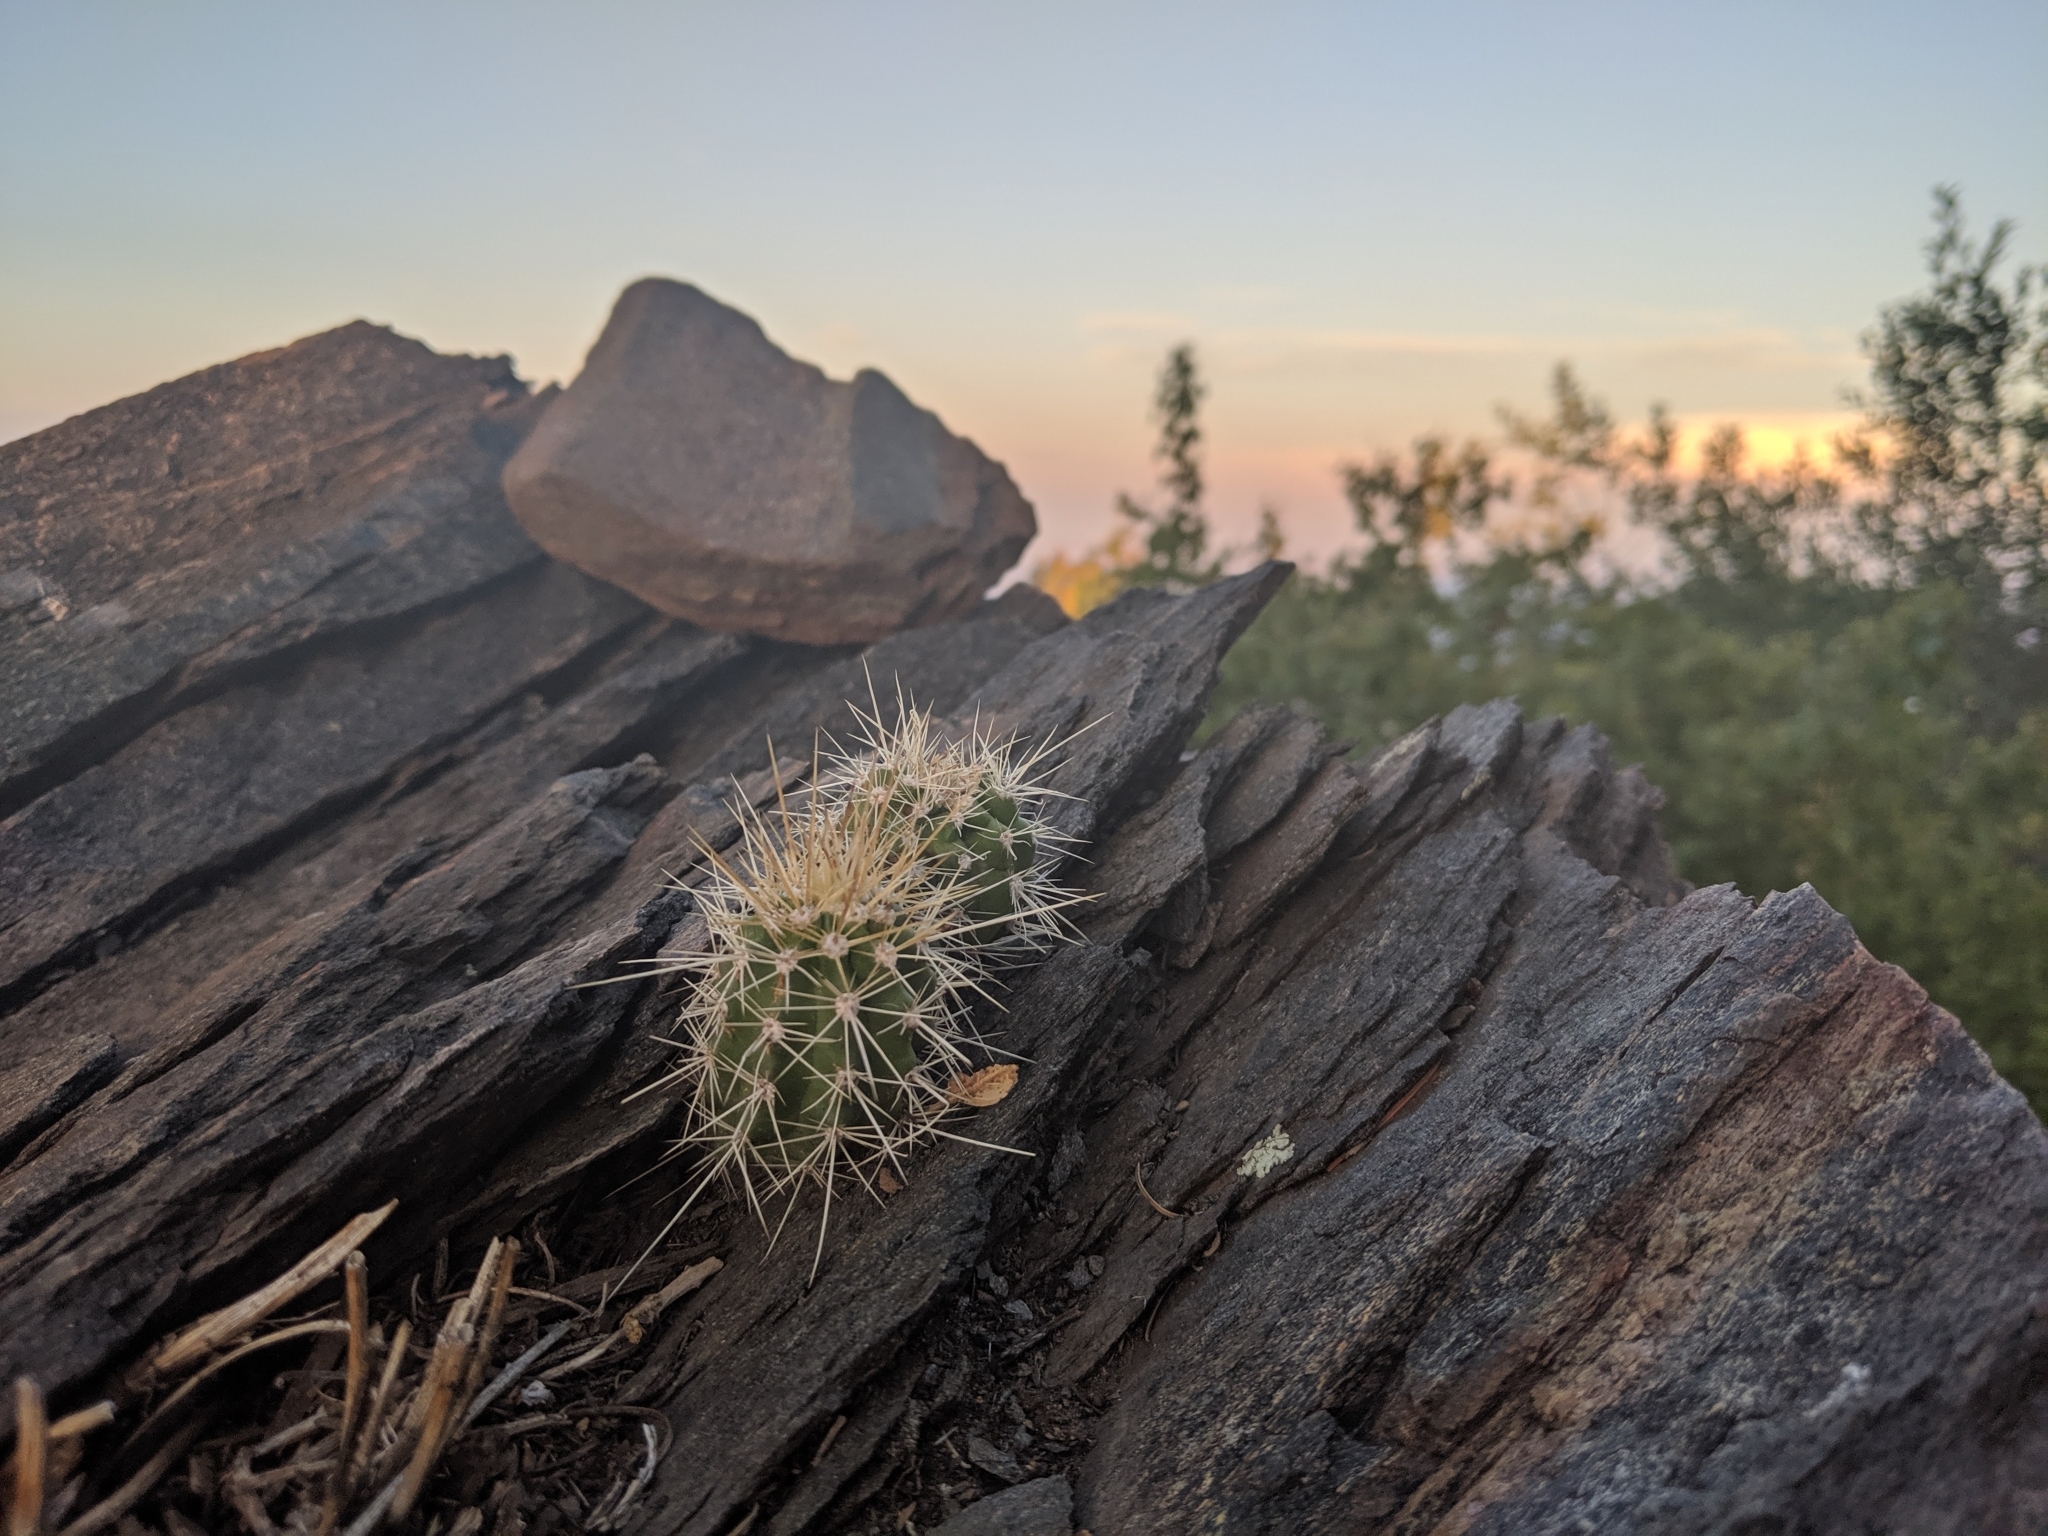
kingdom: Plantae
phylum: Tracheophyta
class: Magnoliopsida
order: Caryophyllales
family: Cactaceae
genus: Echinocereus
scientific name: Echinocereus coccineus
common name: Scarlet hedgehog cactus
